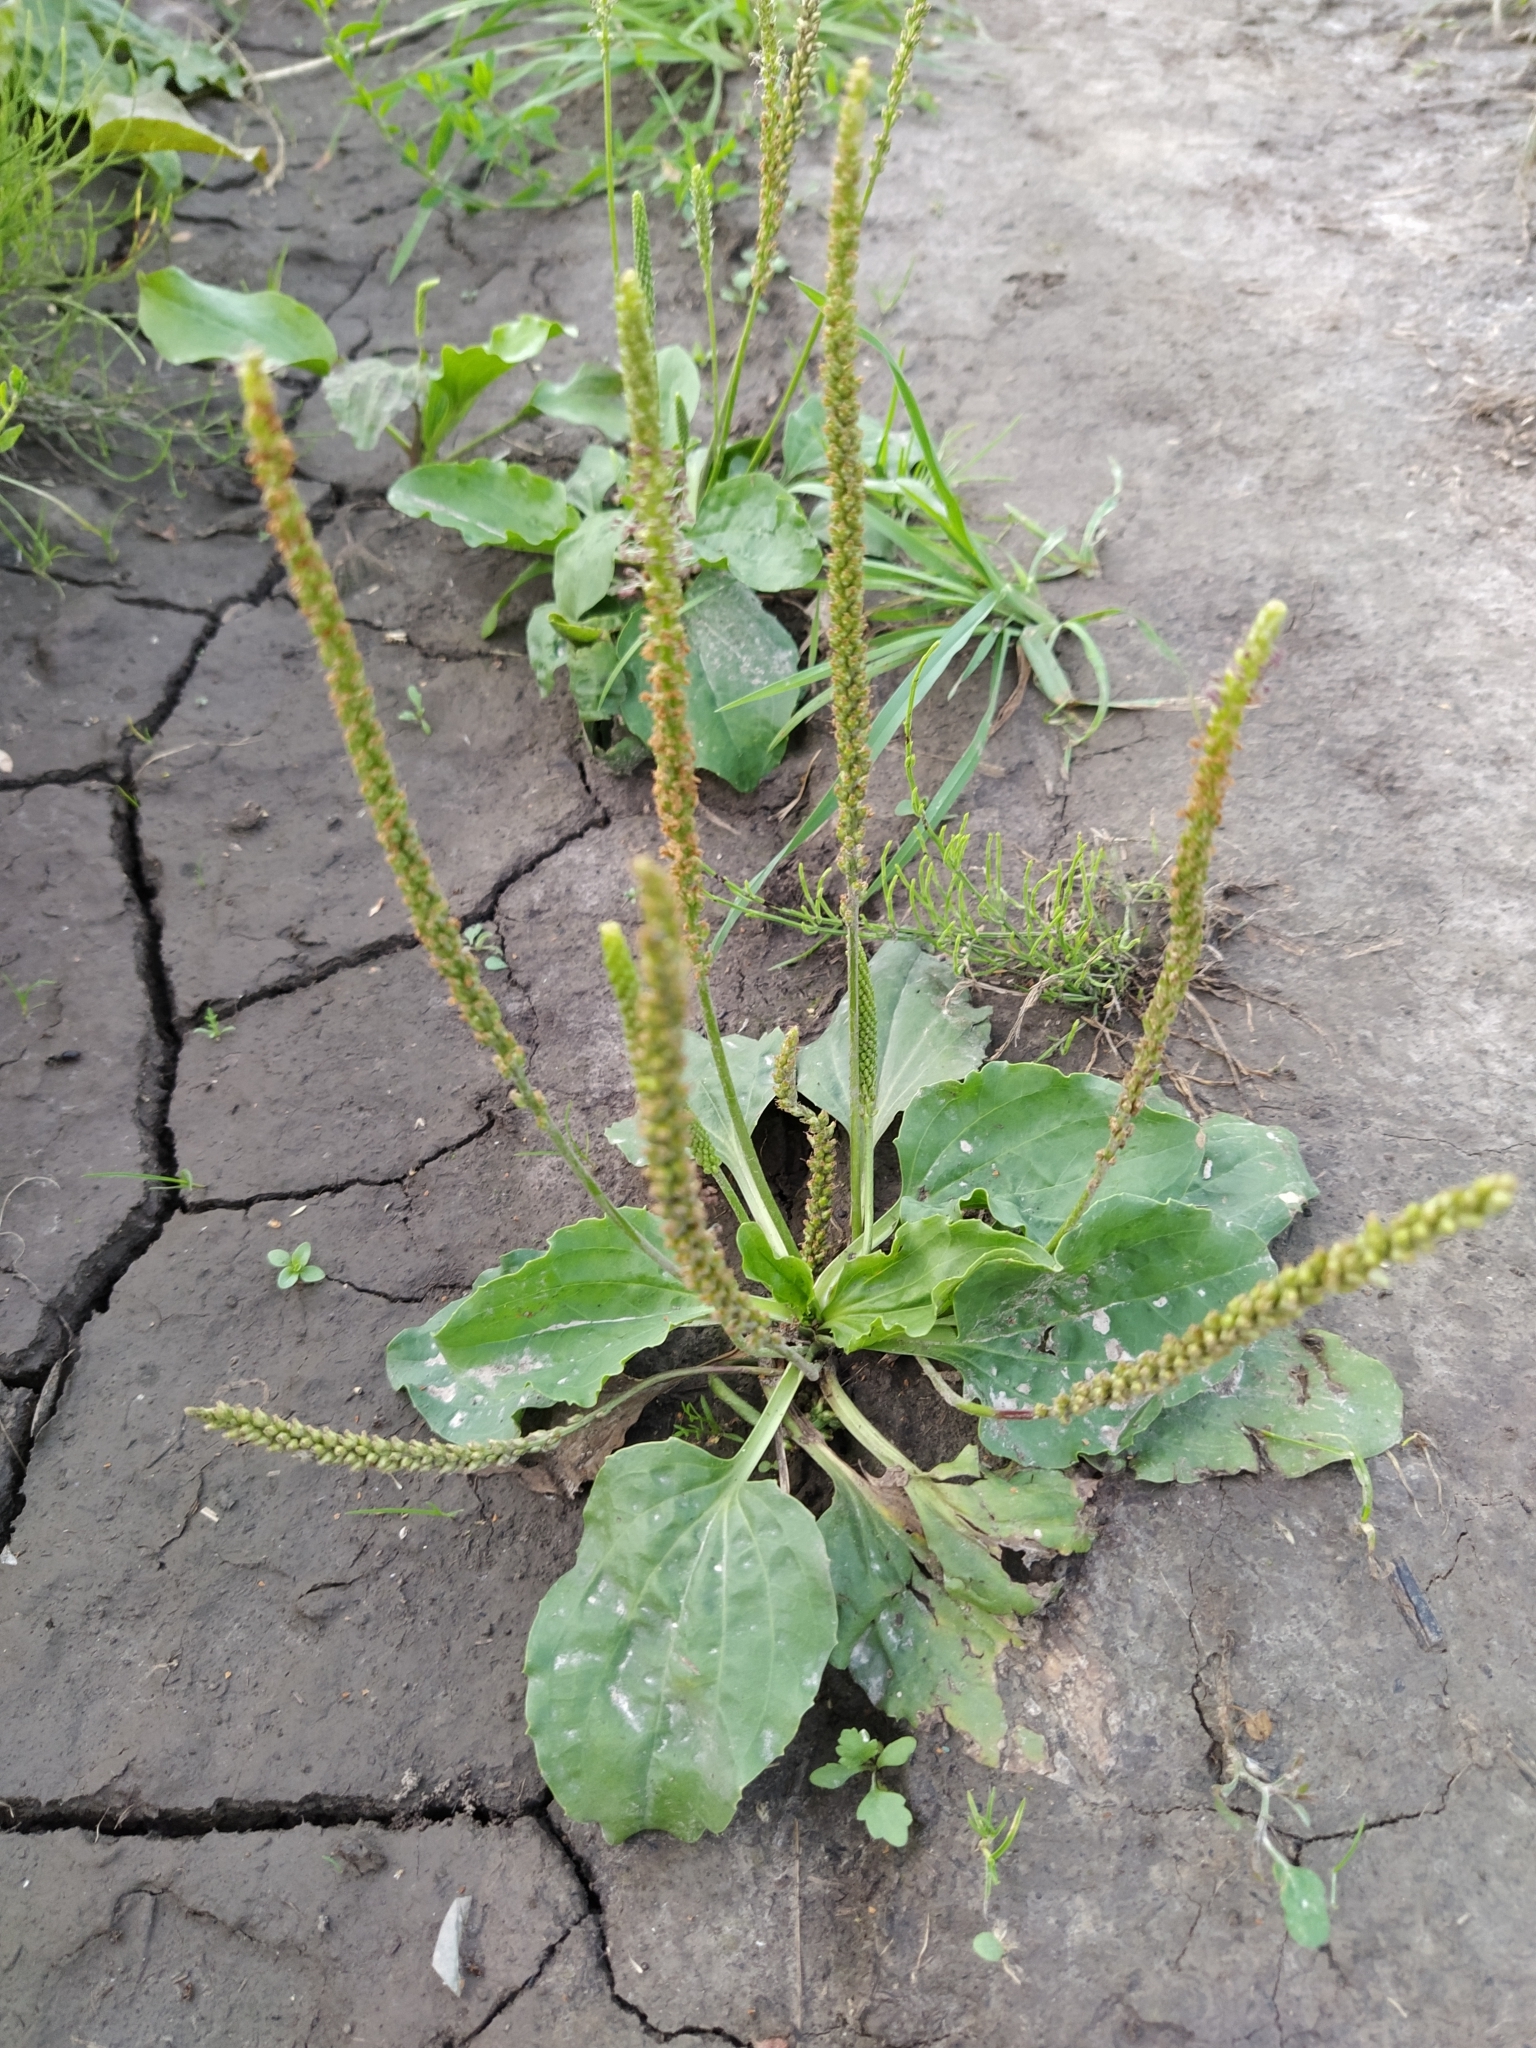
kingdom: Plantae
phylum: Tracheophyta
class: Magnoliopsida
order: Lamiales
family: Plantaginaceae
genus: Plantago
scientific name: Plantago major
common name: Common plantain
